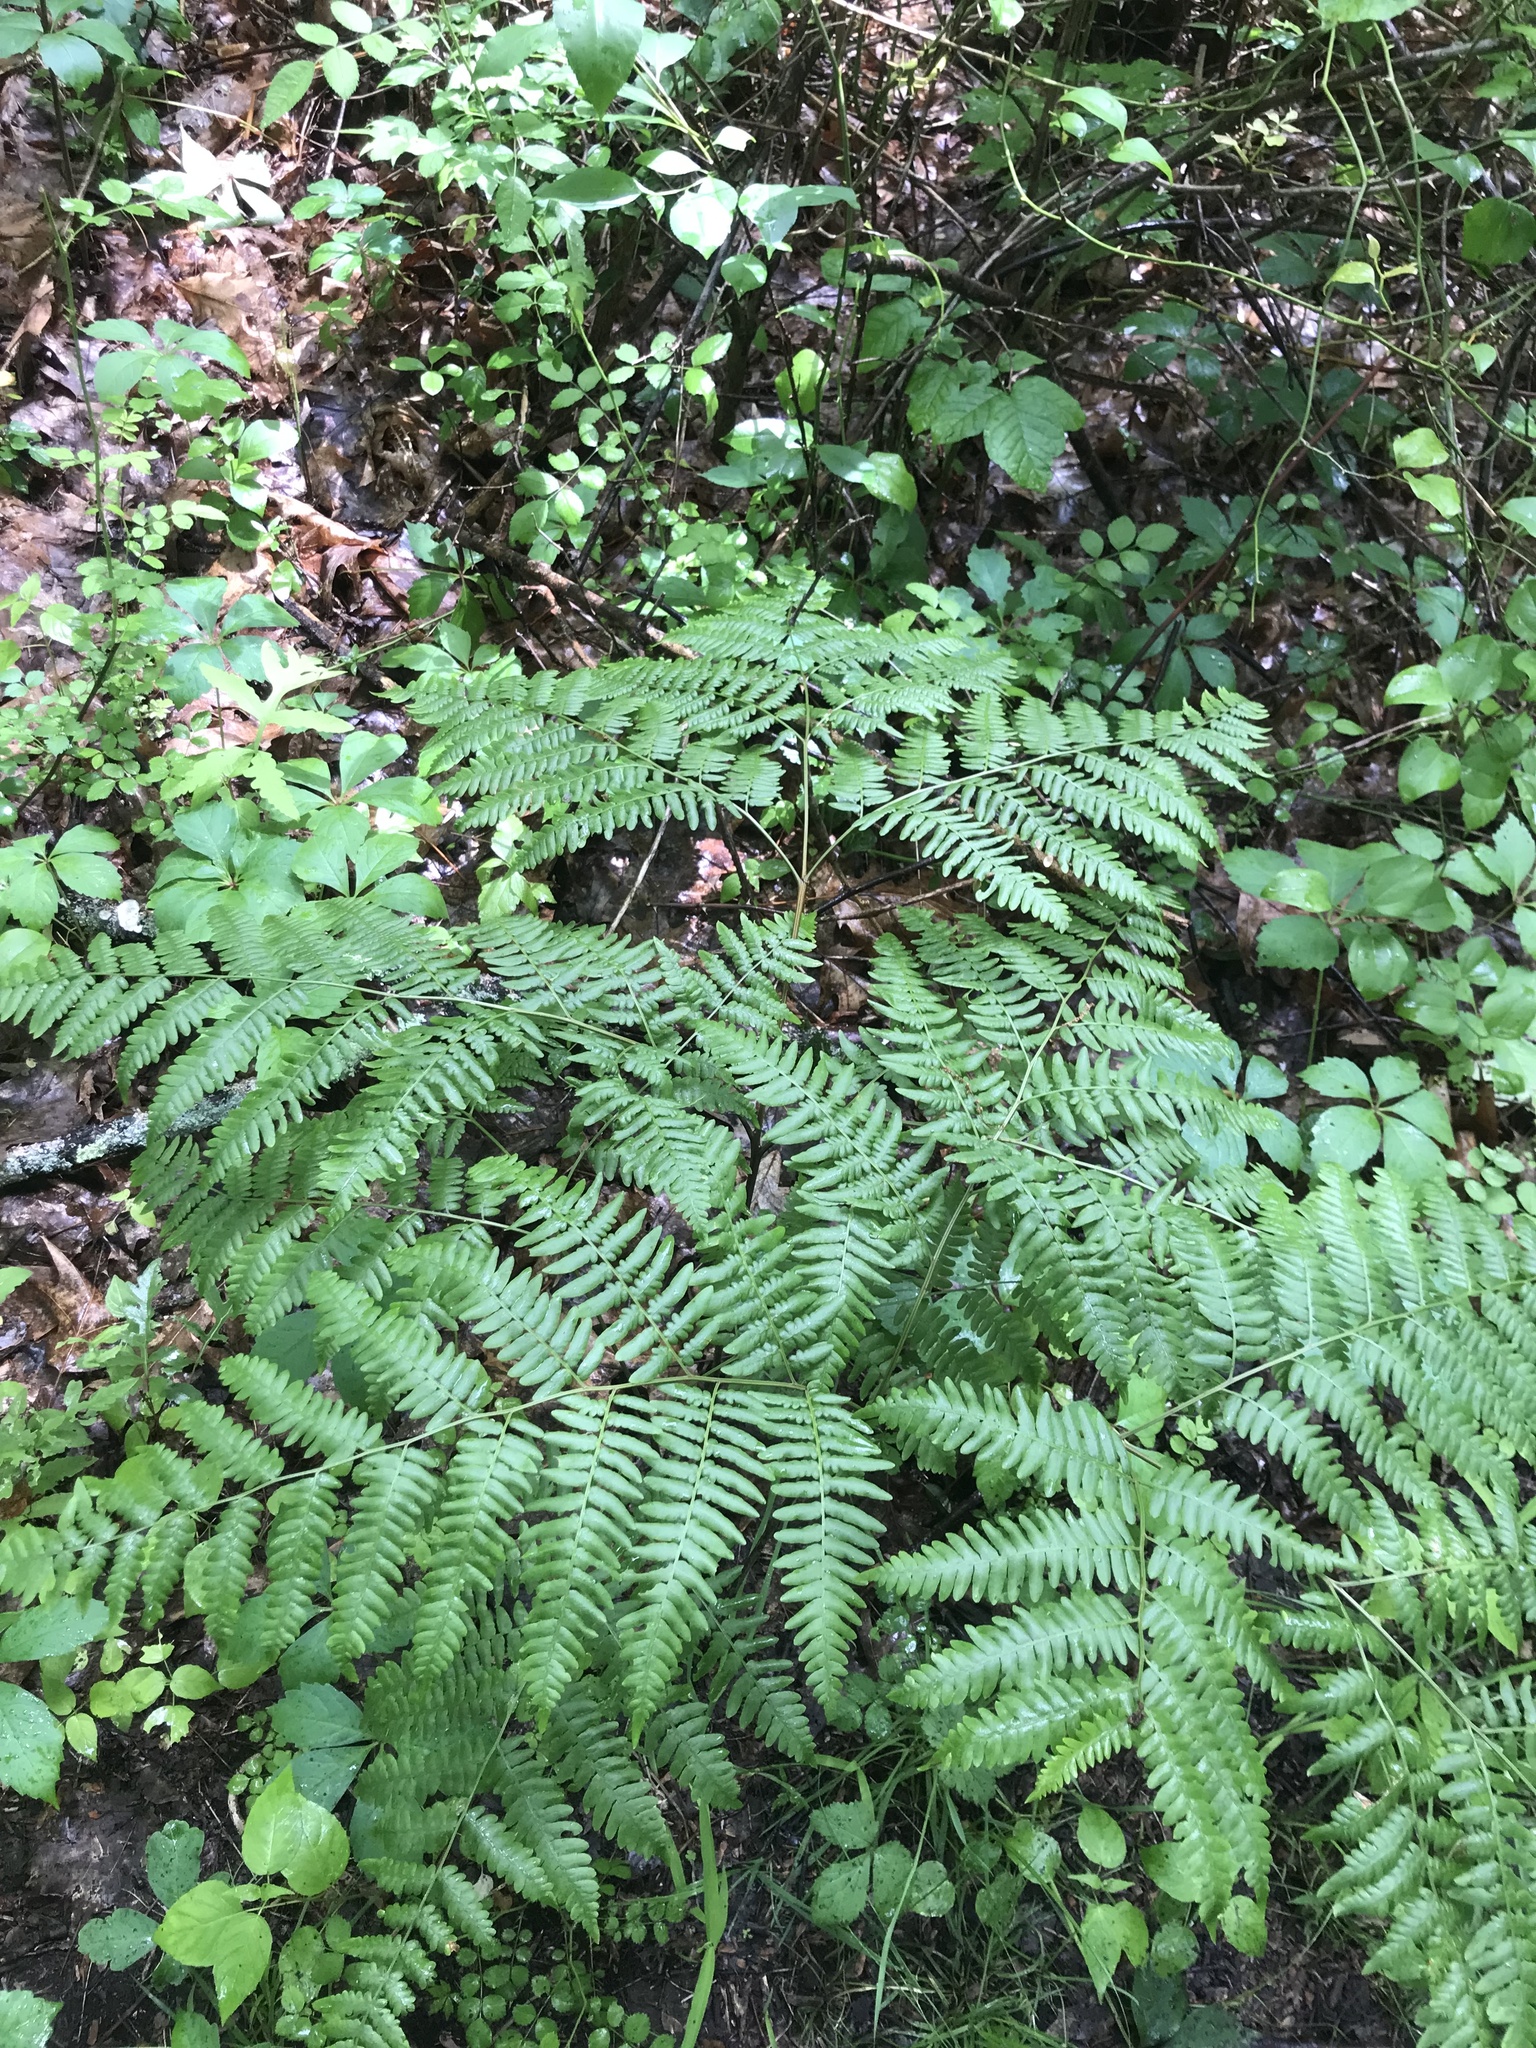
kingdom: Plantae
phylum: Tracheophyta
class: Polypodiopsida
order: Polypodiales
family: Dennstaedtiaceae
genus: Pteridium
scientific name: Pteridium aquilinum
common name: Bracken
